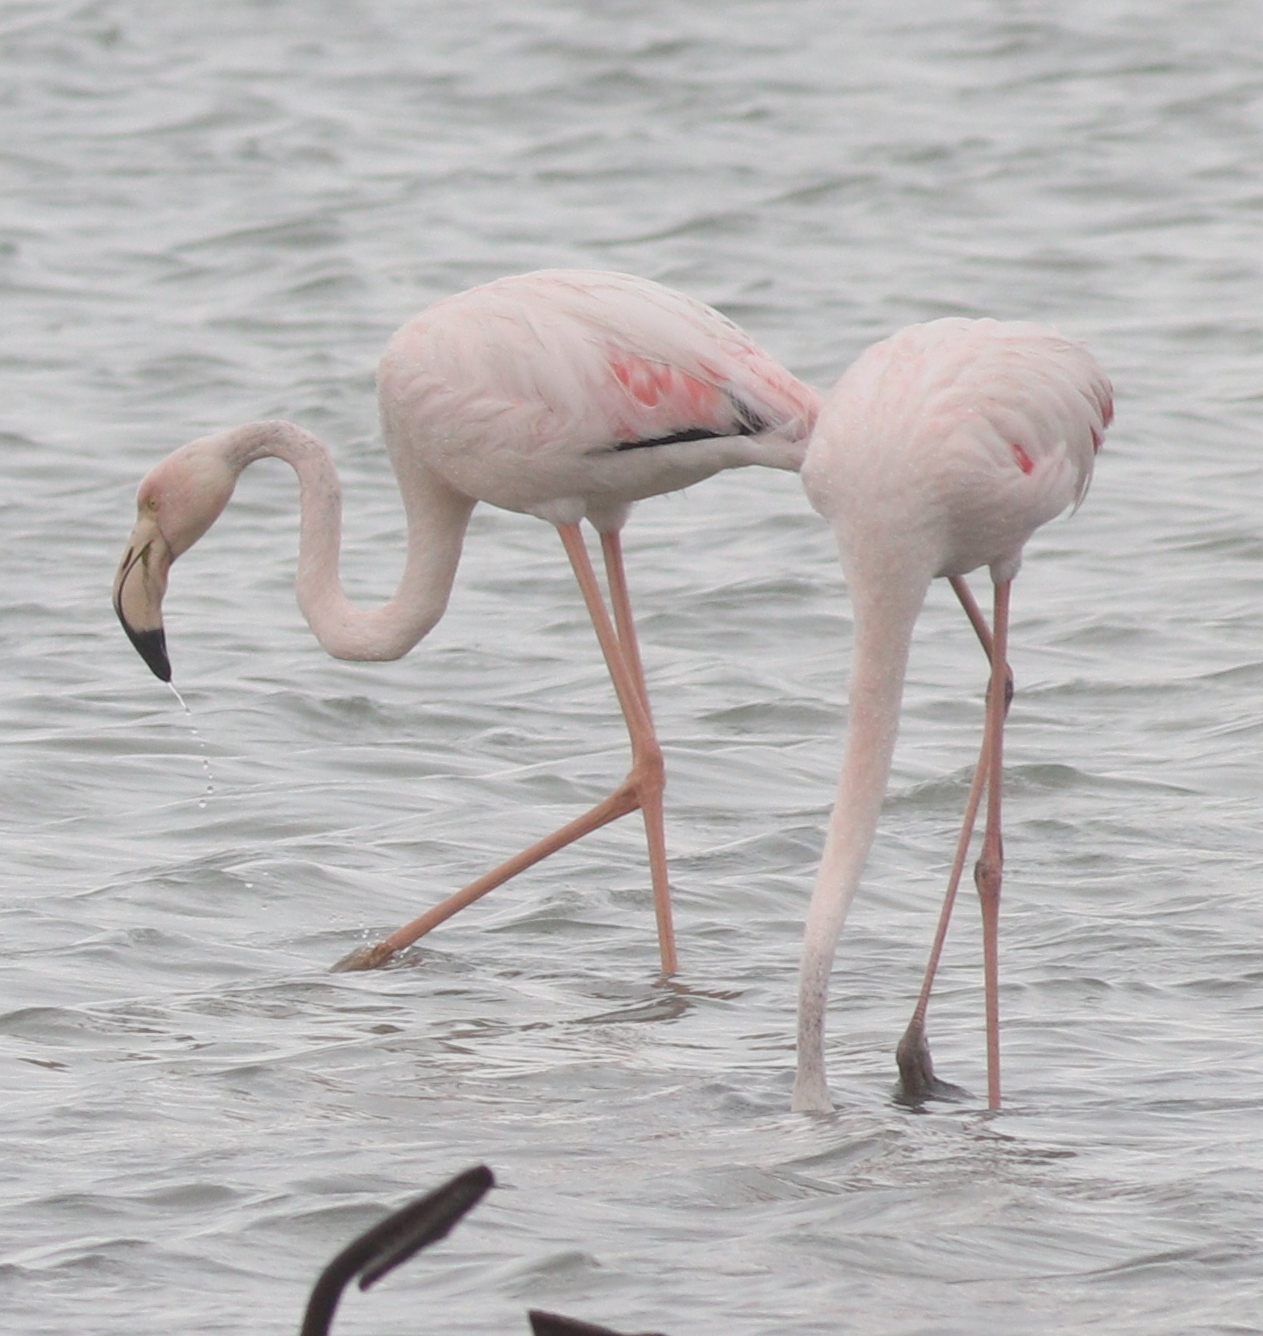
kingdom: Animalia
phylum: Chordata
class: Aves
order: Phoenicopteriformes
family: Phoenicopteridae
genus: Phoenicopterus
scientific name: Phoenicopterus roseus
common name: Greater flamingo
